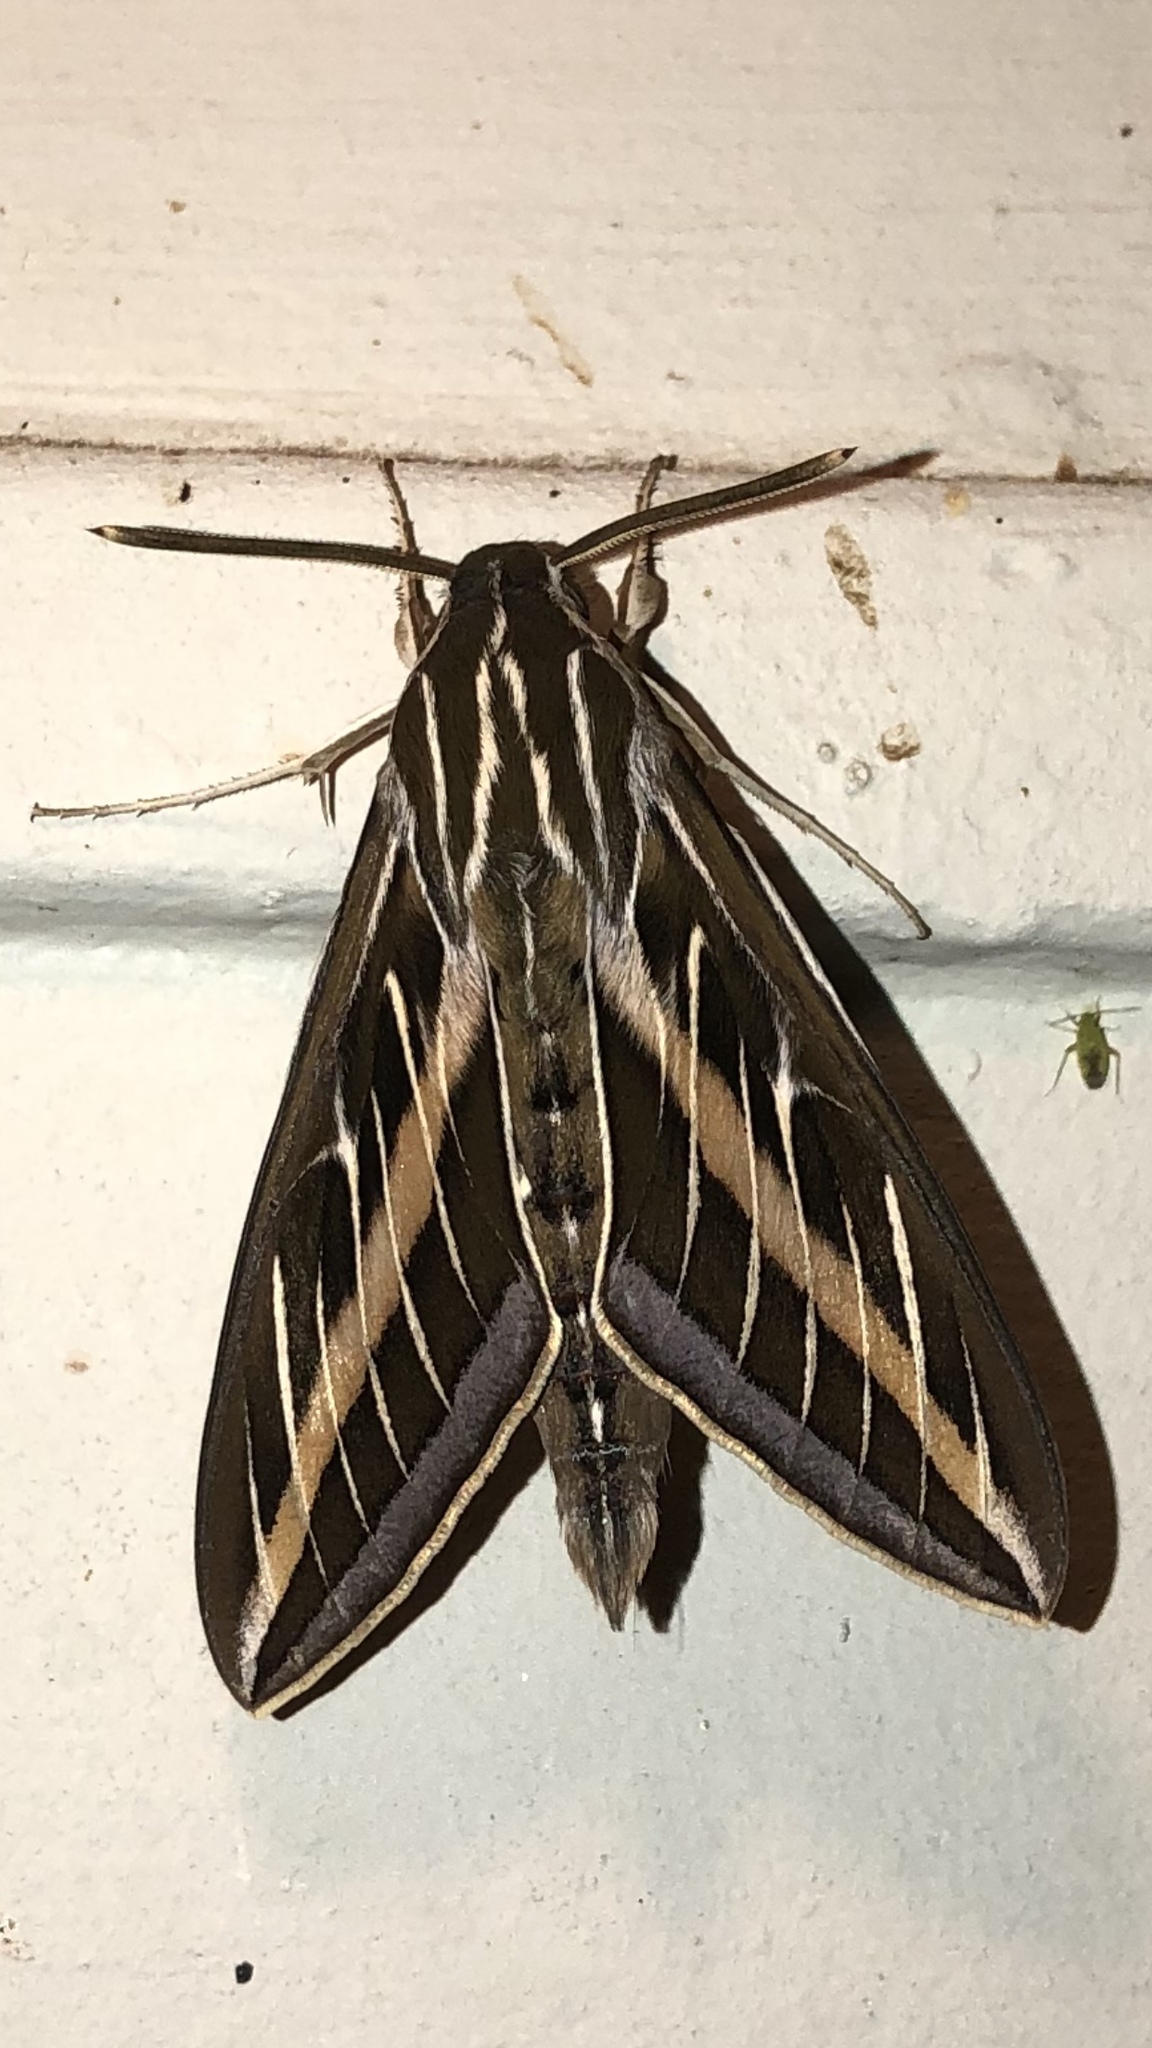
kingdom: Animalia
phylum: Arthropoda
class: Insecta
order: Lepidoptera
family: Sphingidae
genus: Hyles
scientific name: Hyles lineata
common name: White-lined sphinx
